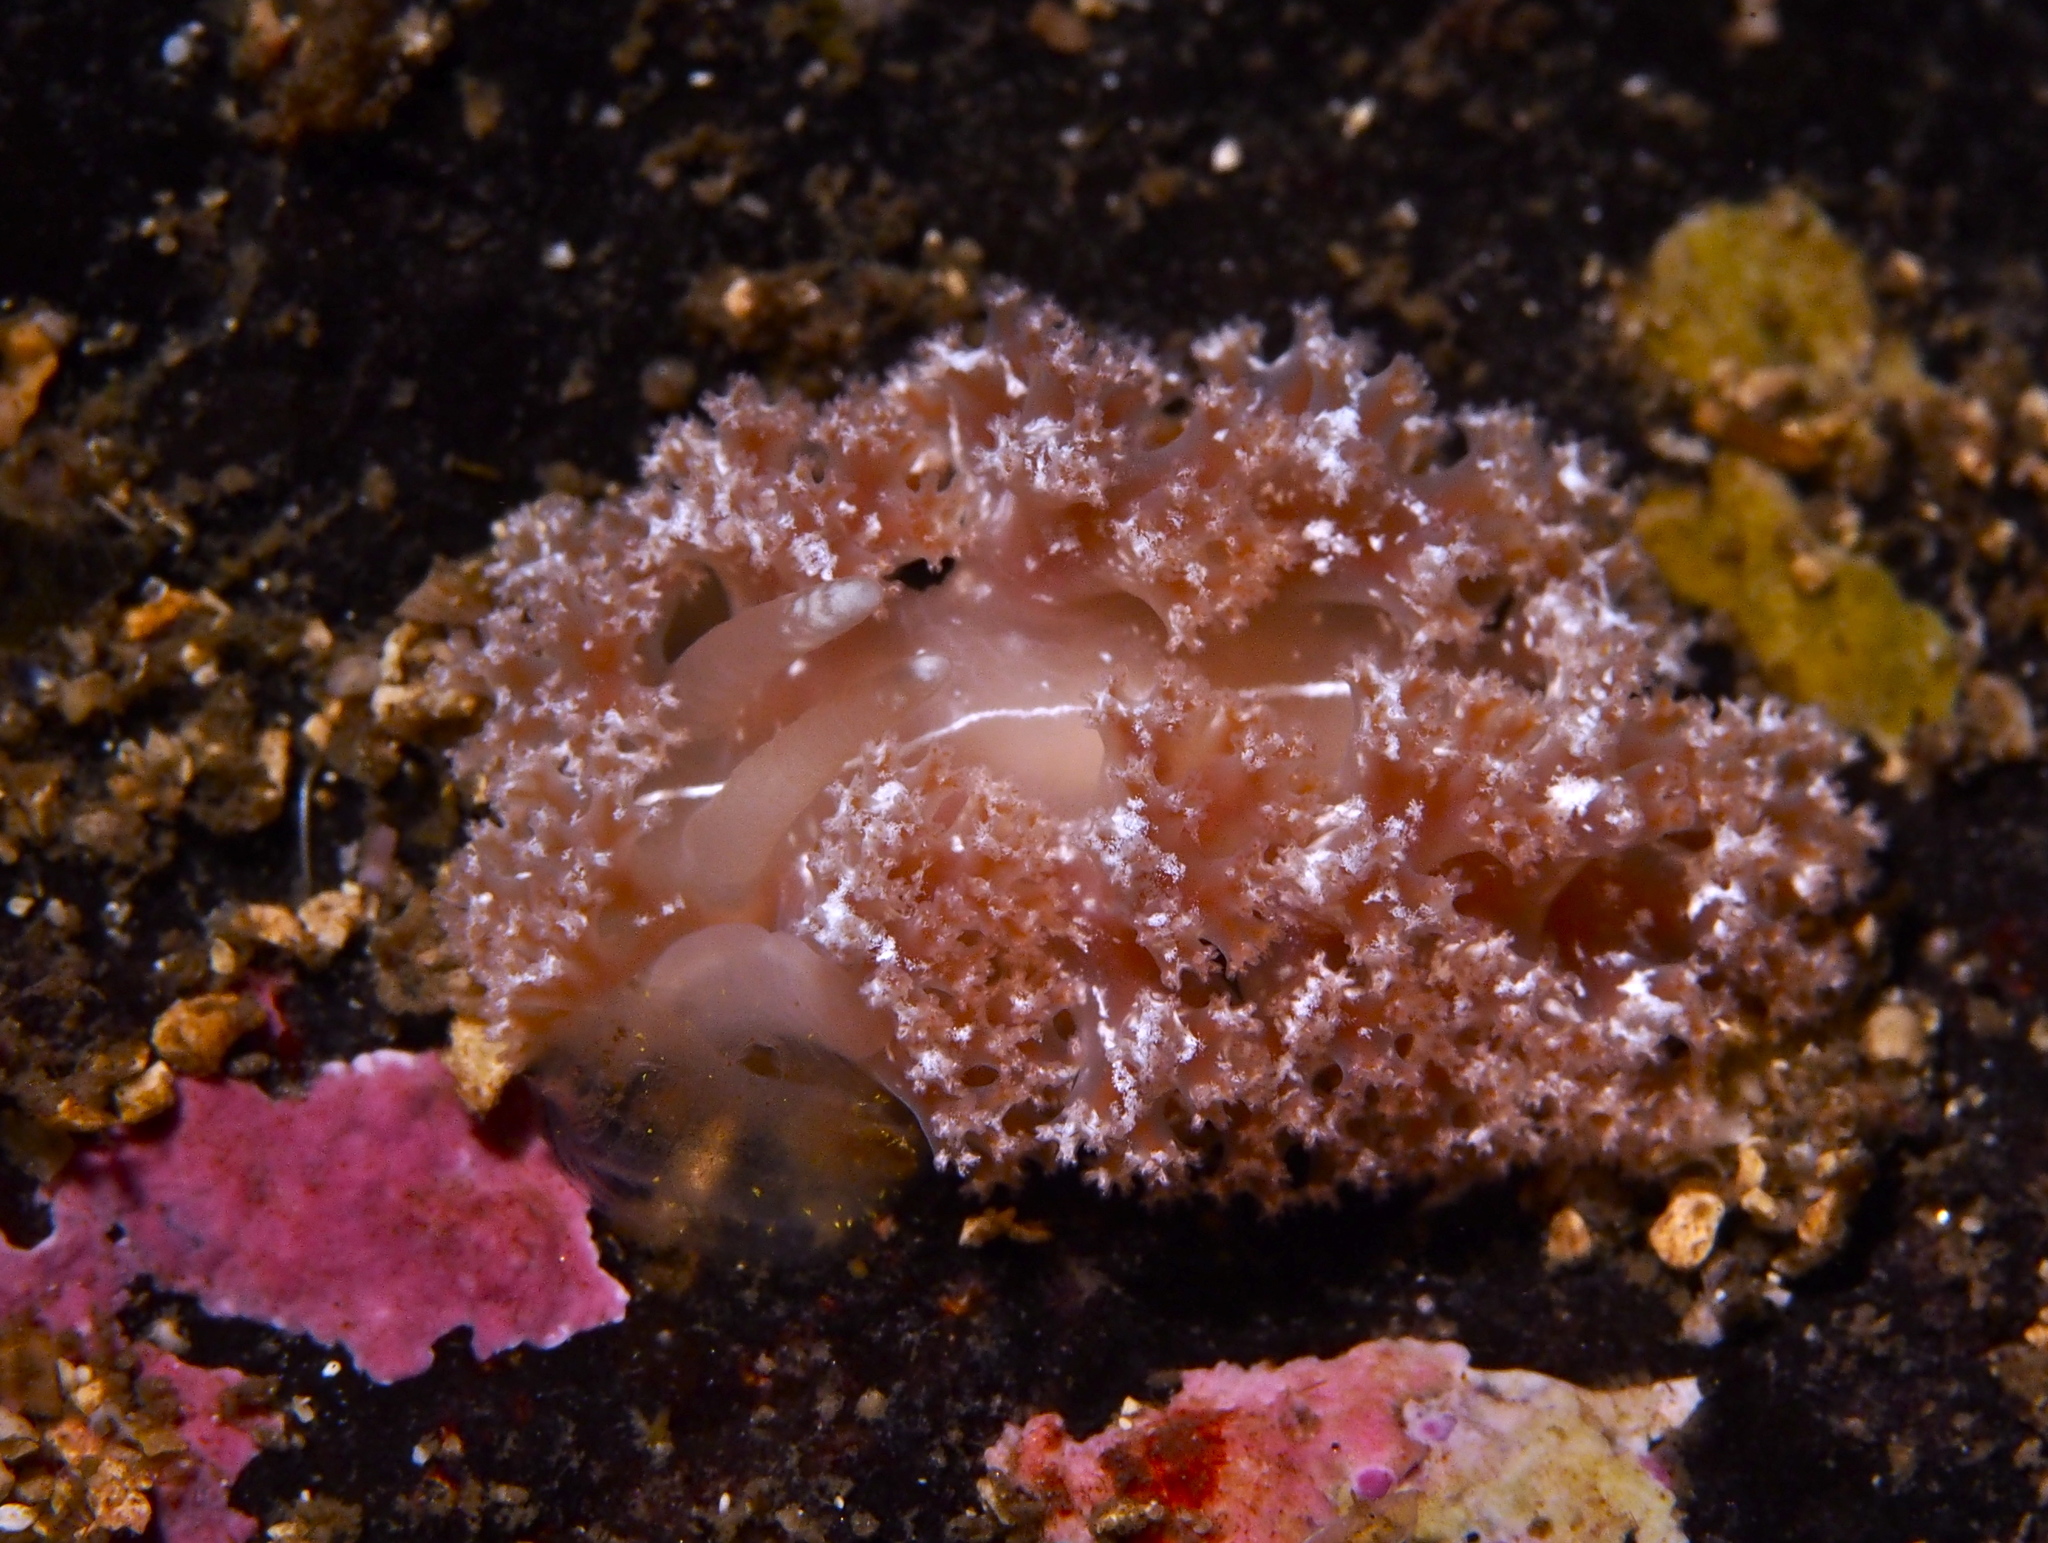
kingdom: Animalia
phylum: Mollusca
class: Gastropoda
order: Nudibranchia
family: Heroidae
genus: Hero
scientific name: Hero formosa
